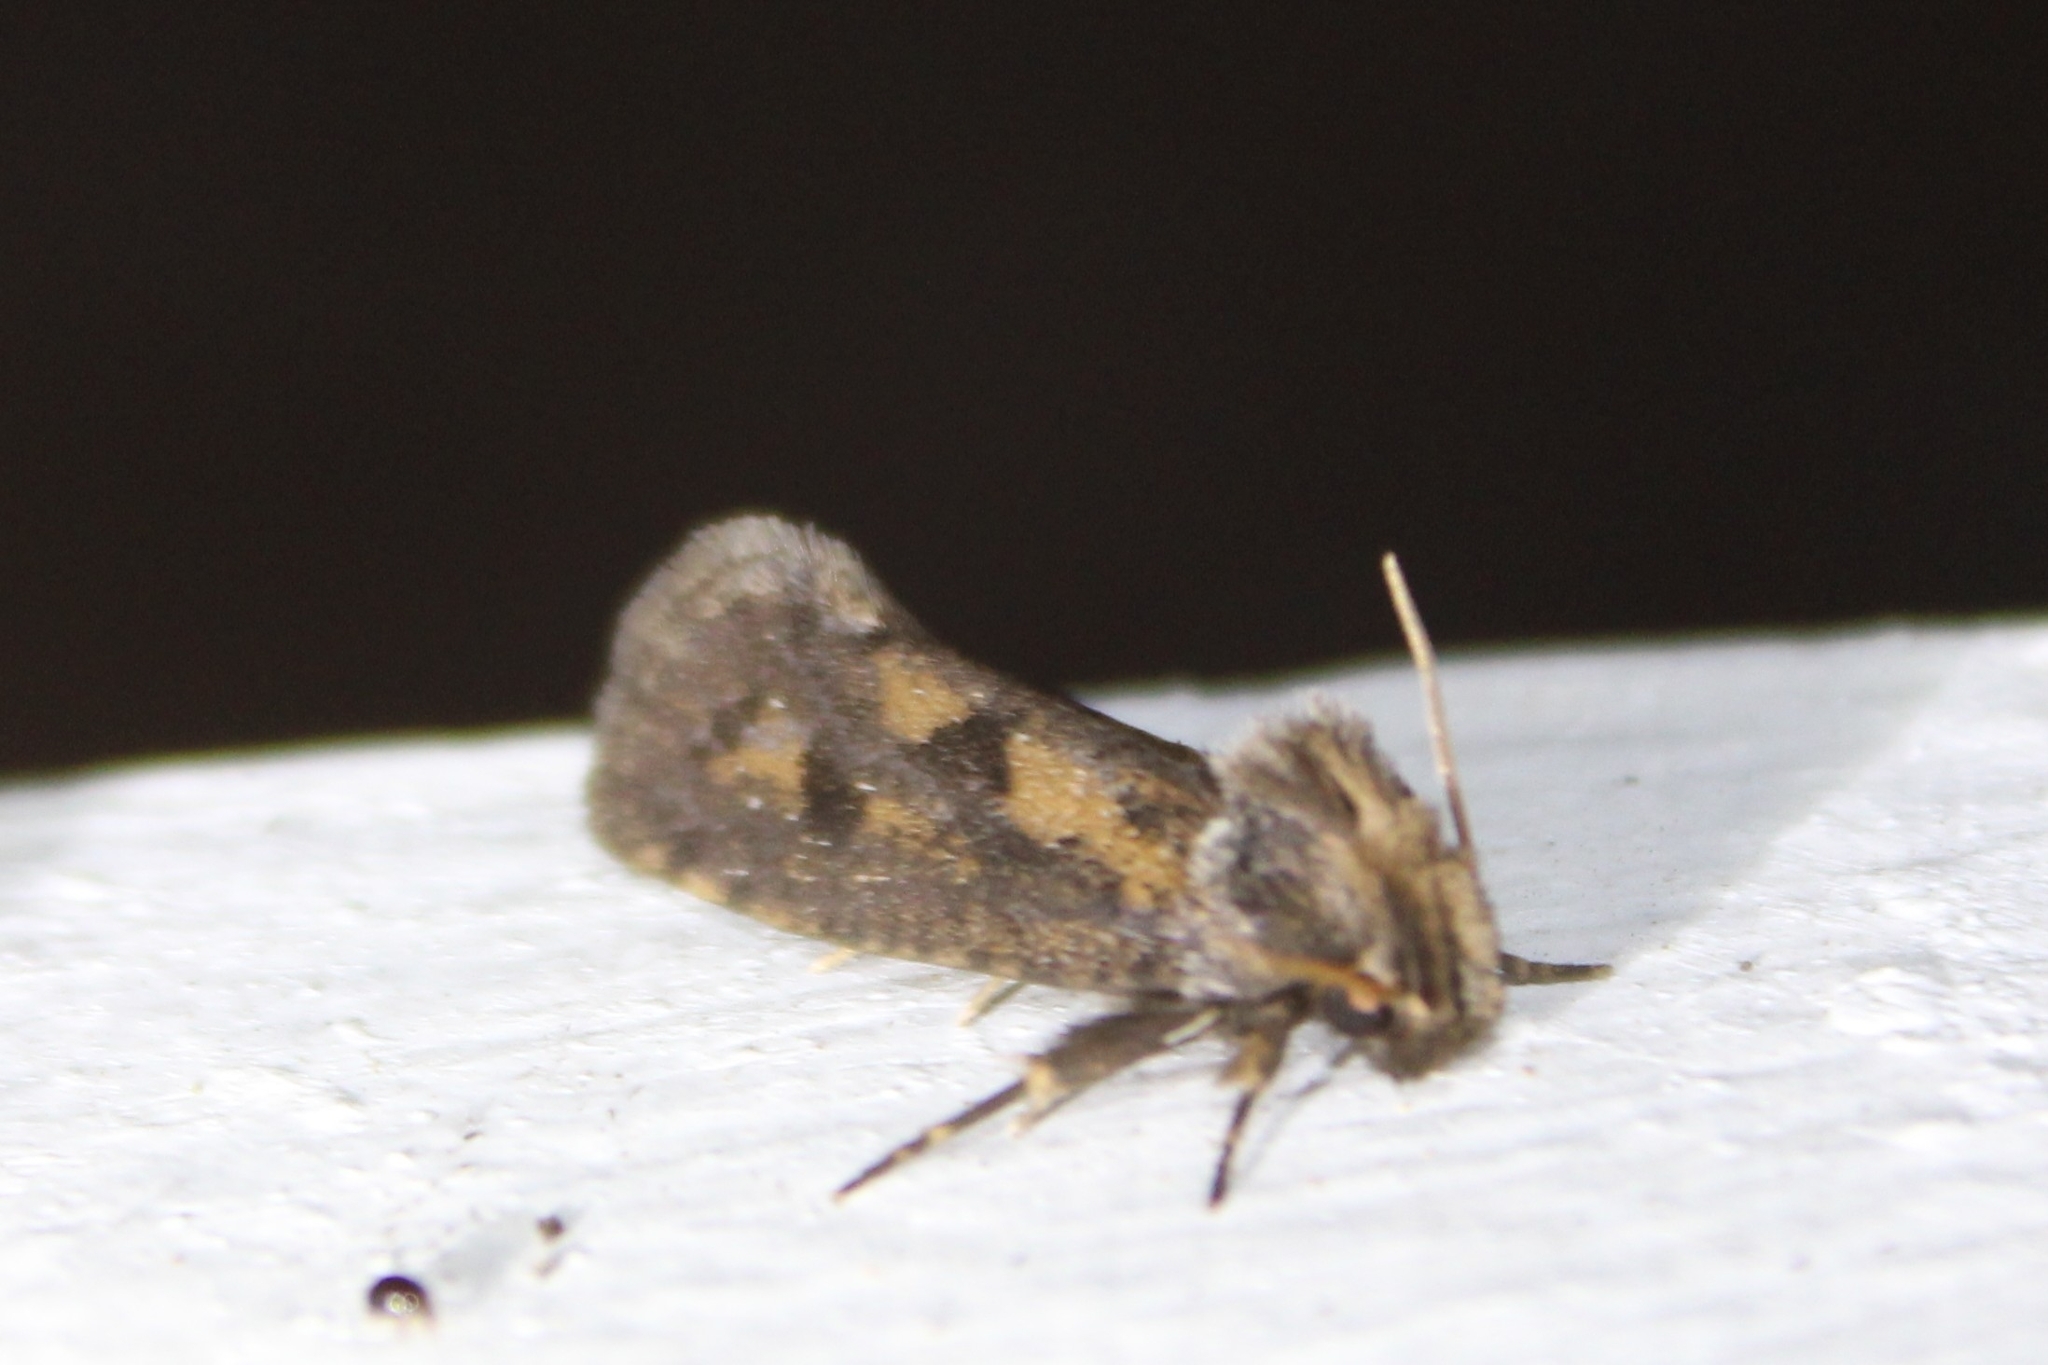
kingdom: Animalia
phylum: Arthropoda
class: Insecta
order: Lepidoptera
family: Tineidae
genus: Acrolophus
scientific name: Acrolophus popeanella
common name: Clemens' grass tubeworm moth
